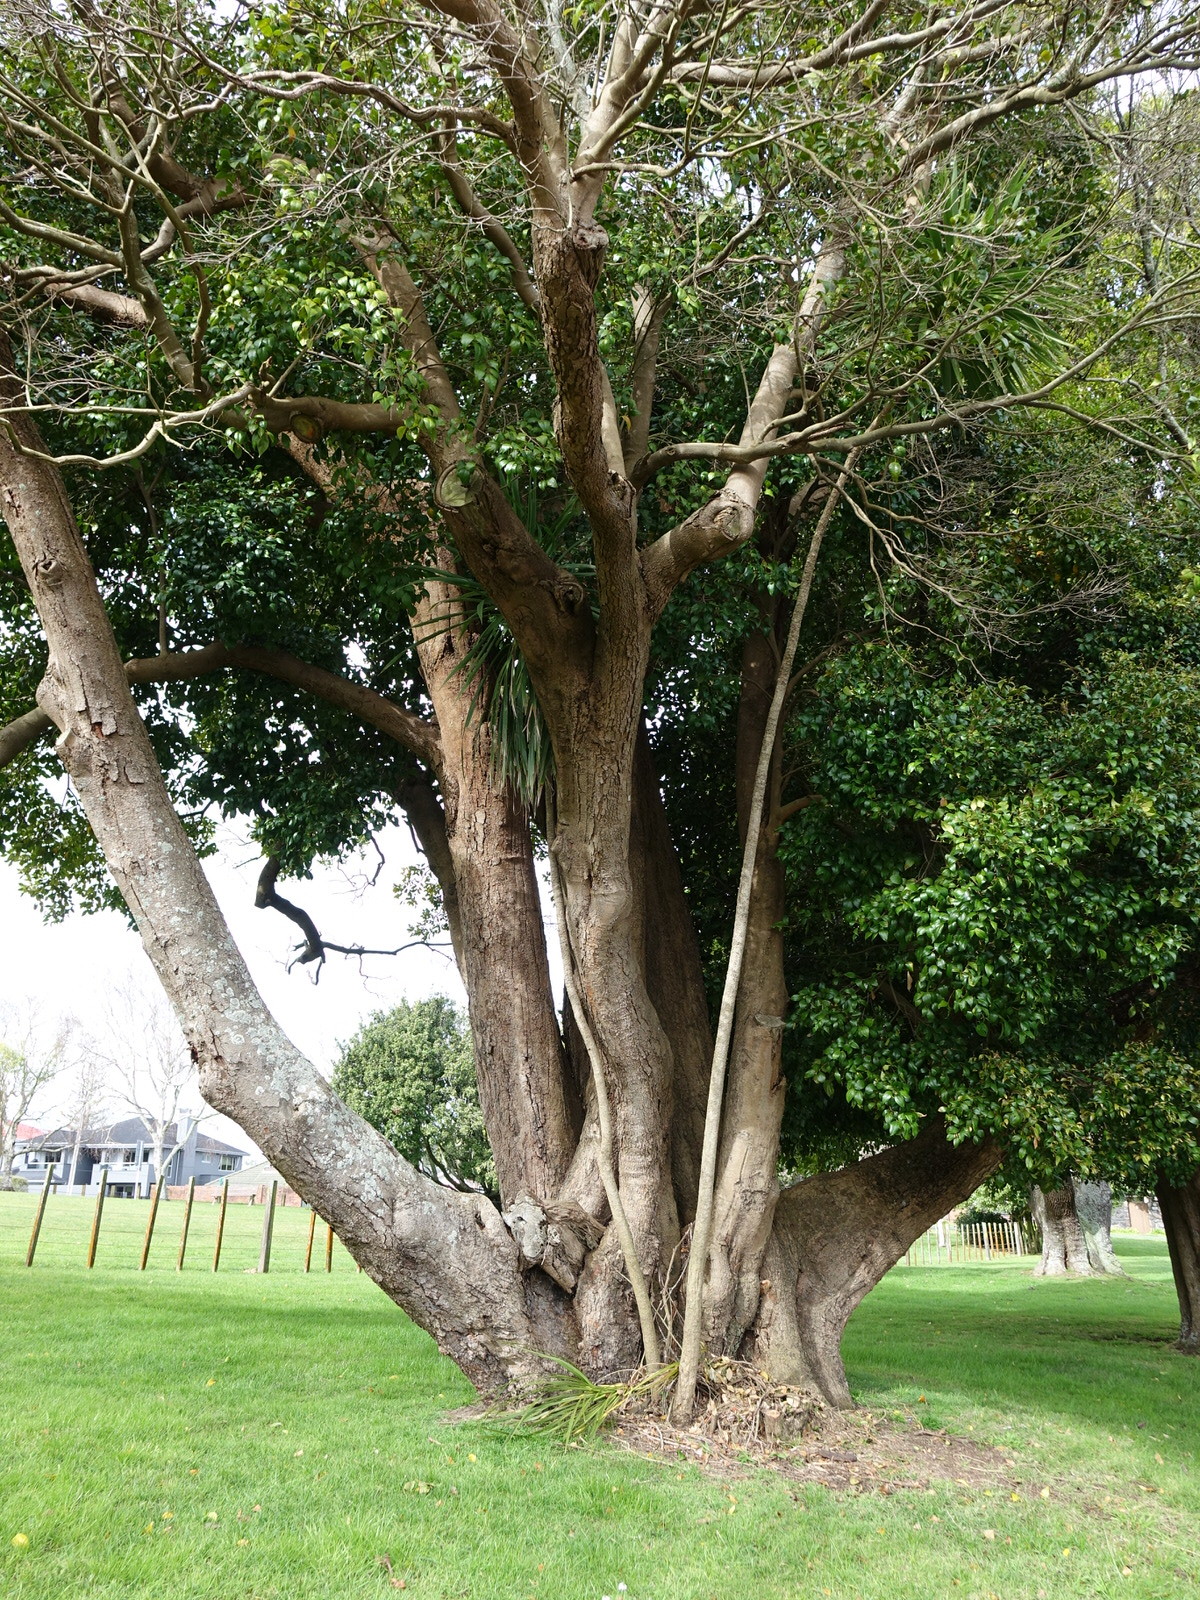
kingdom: Plantae
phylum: Tracheophyta
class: Liliopsida
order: Asparagales
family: Asparagaceae
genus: Cordyline
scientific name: Cordyline australis
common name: Cabbage-palm
